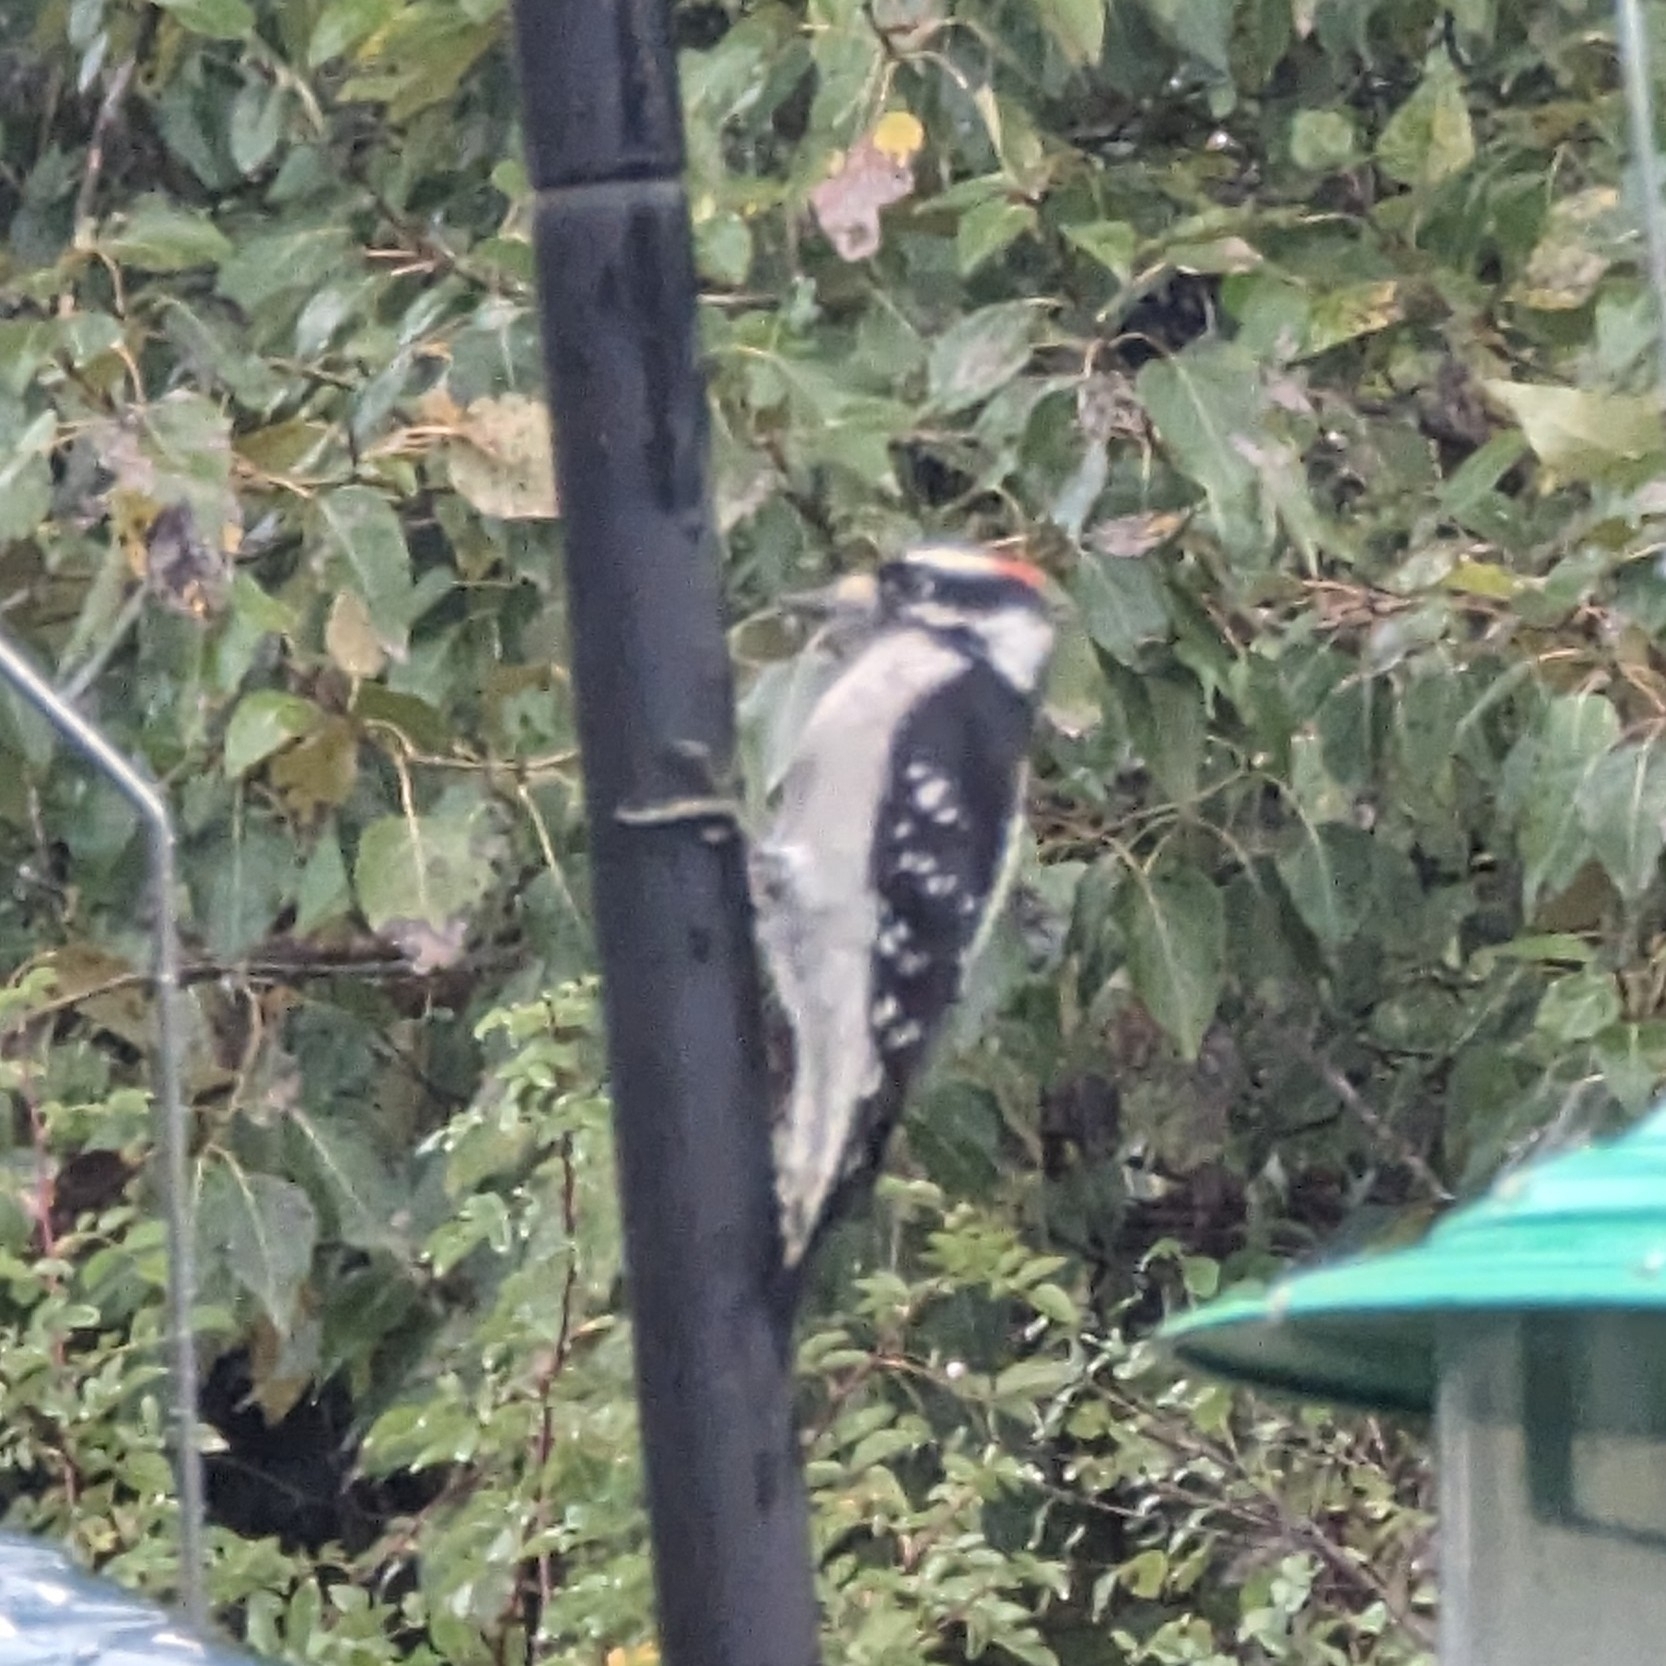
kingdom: Animalia
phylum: Chordata
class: Aves
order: Piciformes
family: Picidae
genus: Dryobates
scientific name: Dryobates pubescens
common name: Downy woodpecker
